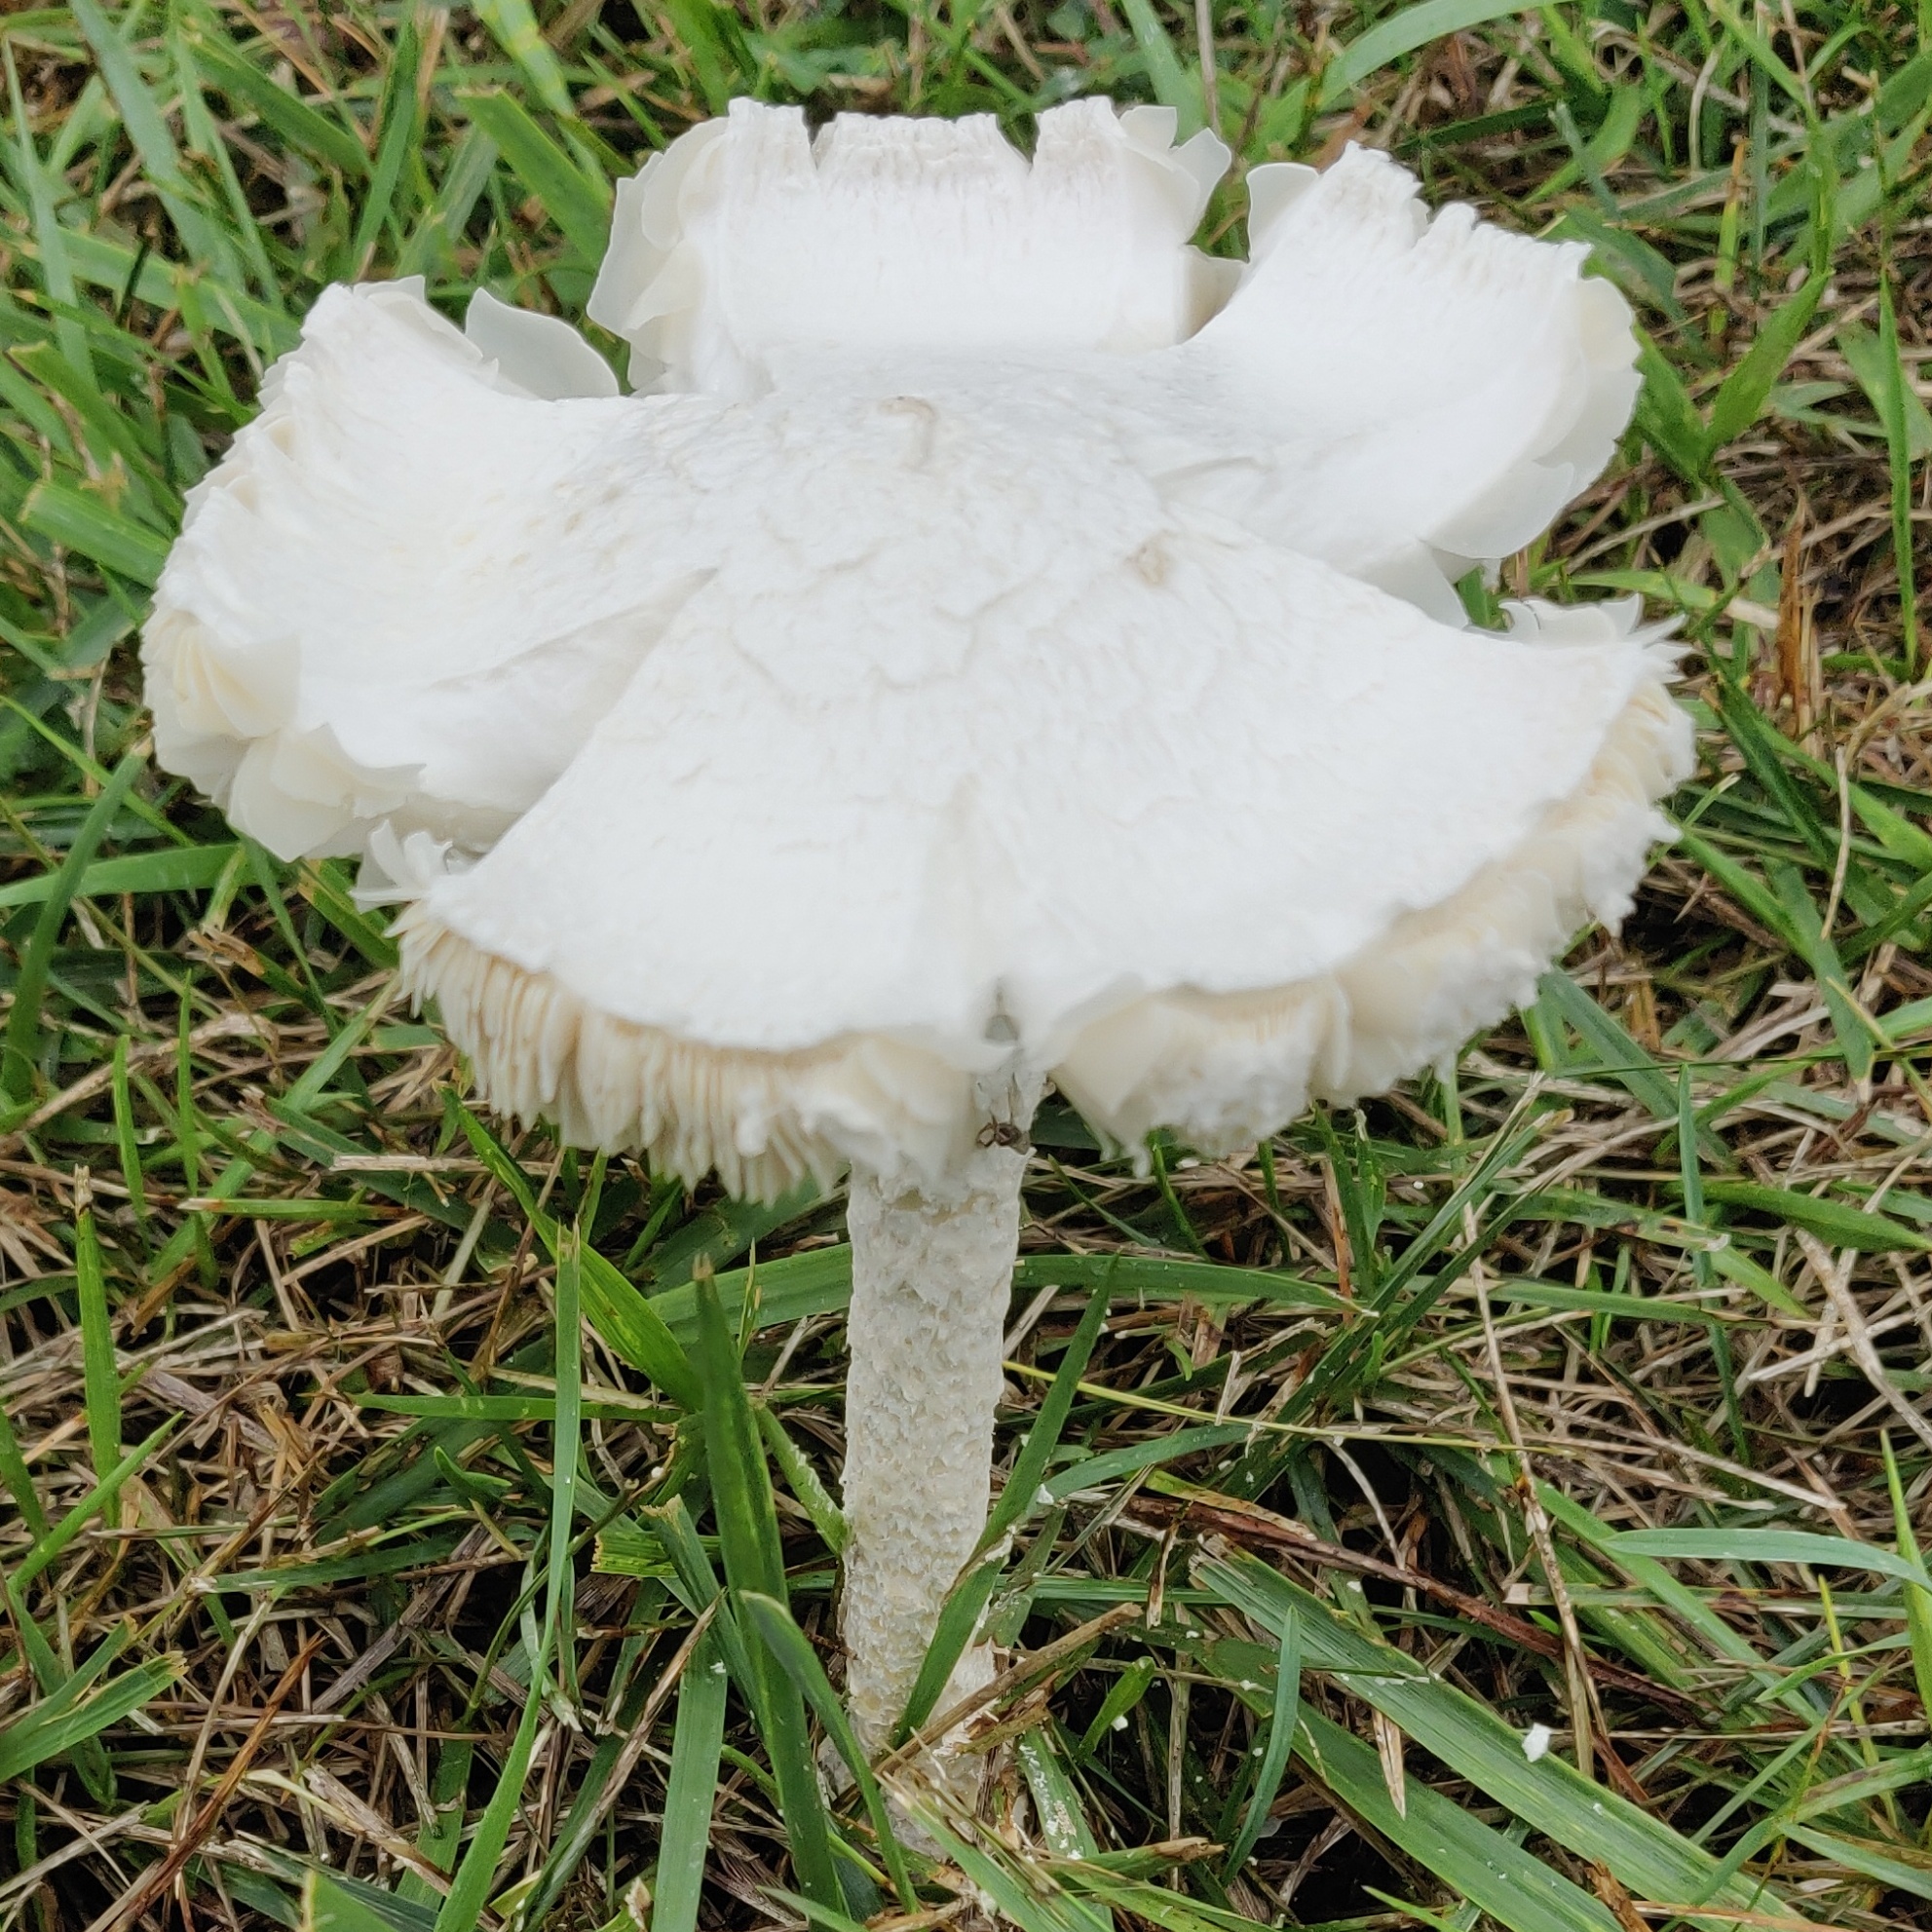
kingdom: Fungi
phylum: Basidiomycota
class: Agaricomycetes
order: Agaricales
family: Amanitaceae
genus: Amanita
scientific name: Amanita thiersii
